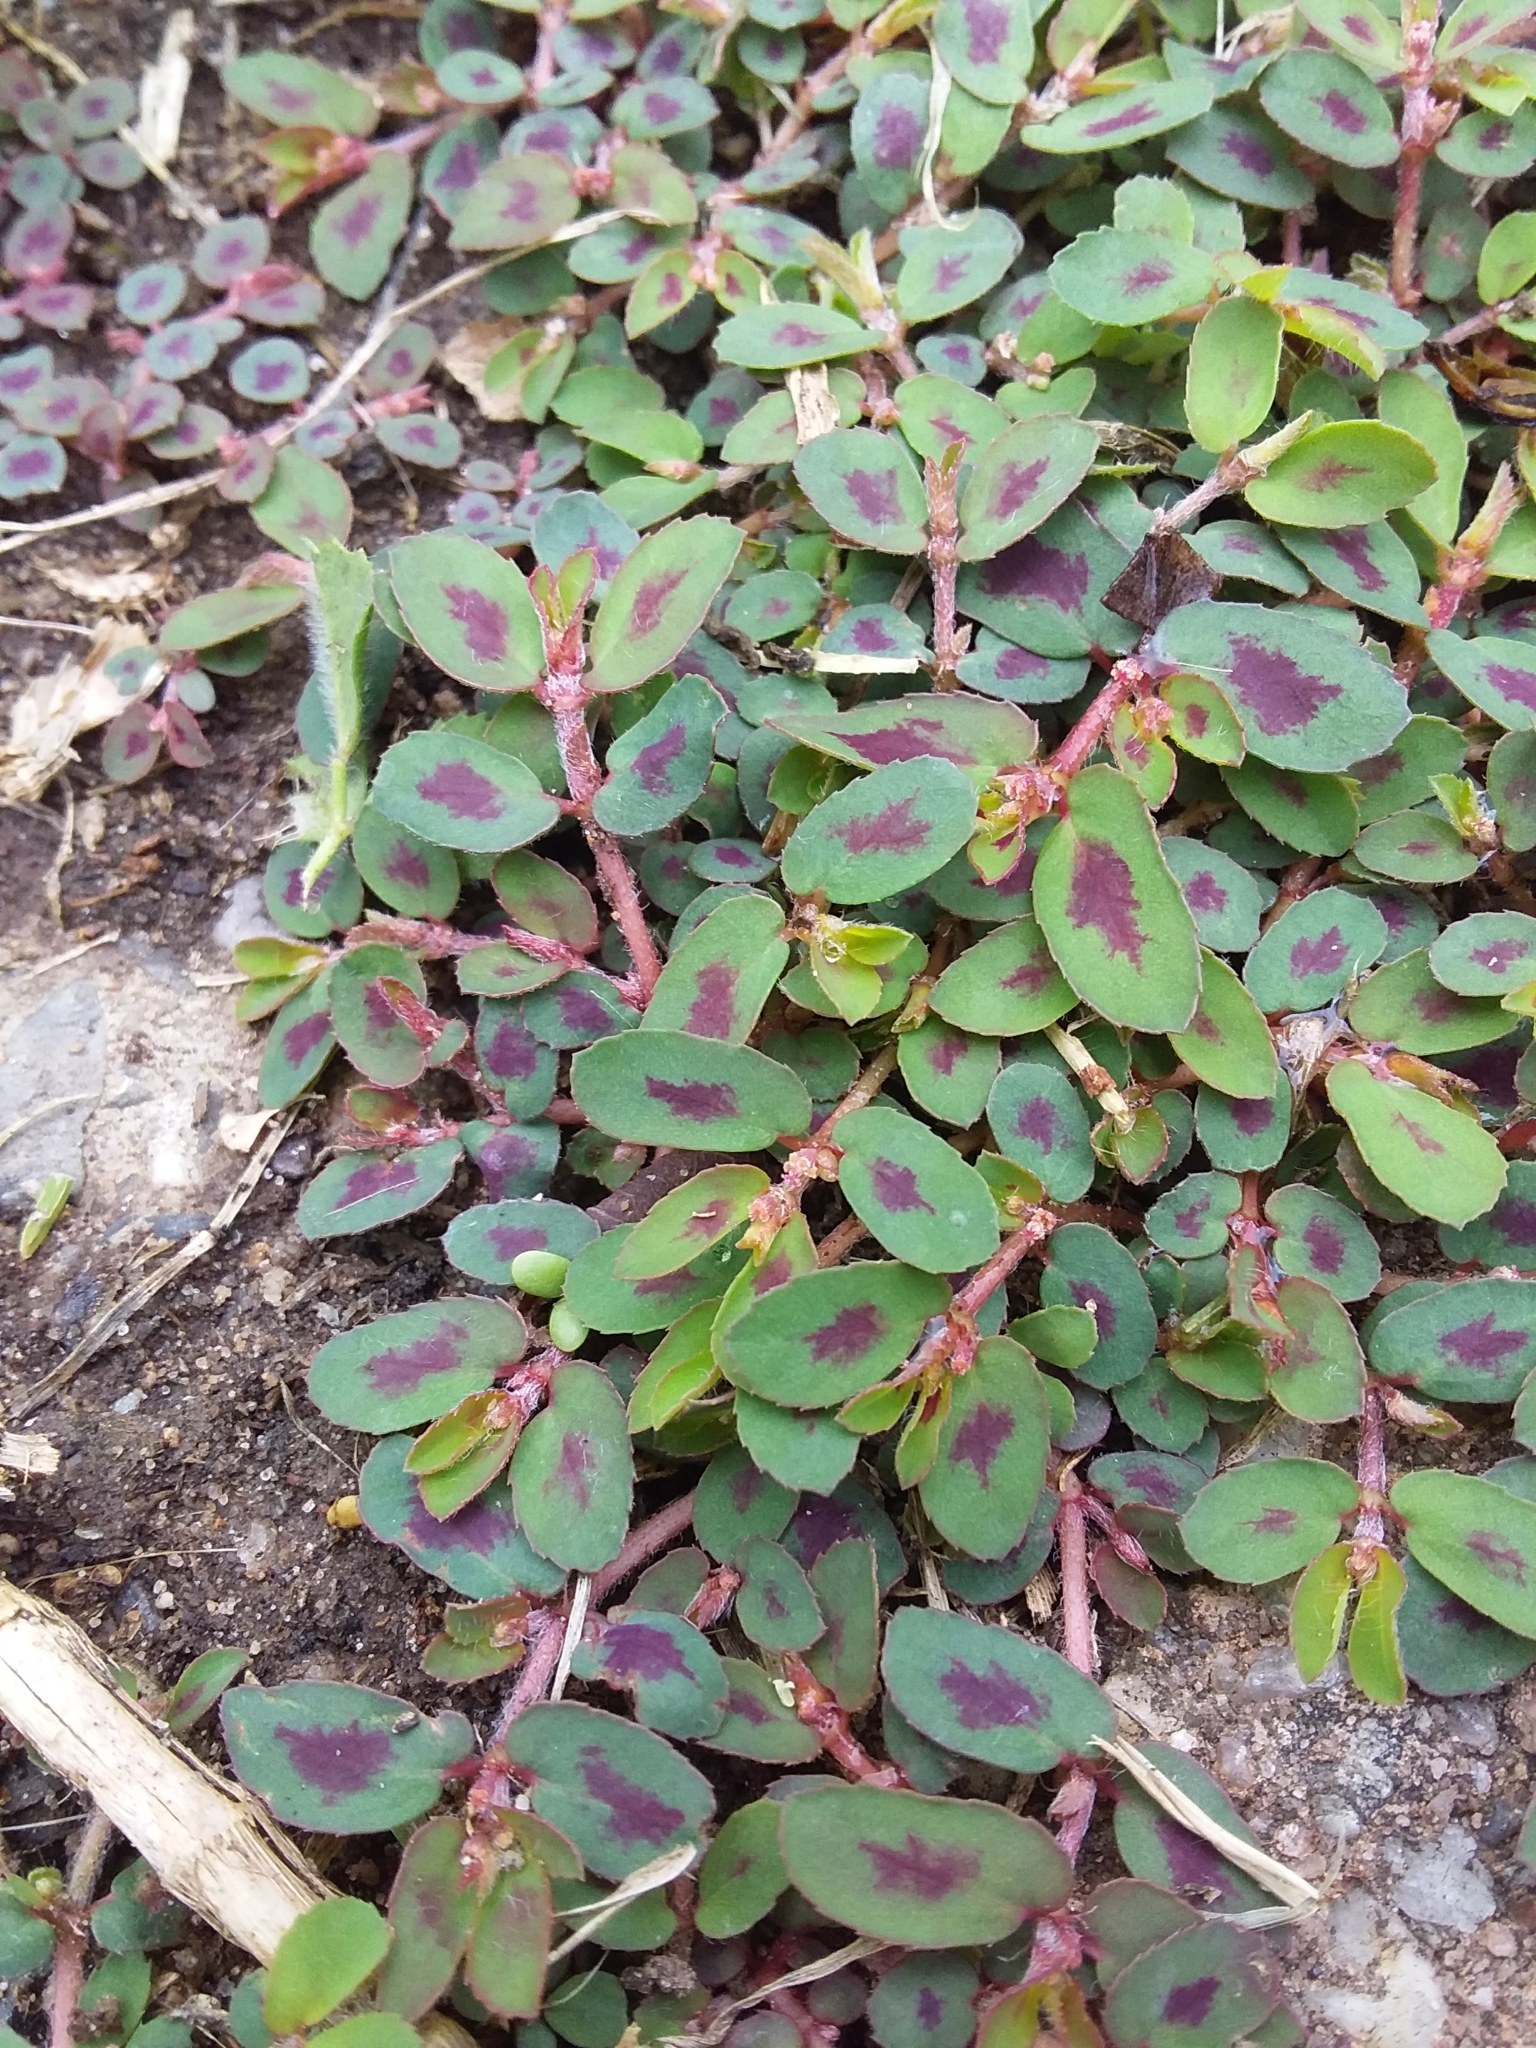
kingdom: Plantae
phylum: Tracheophyta
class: Magnoliopsida
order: Malpighiales
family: Euphorbiaceae
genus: Euphorbia
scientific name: Euphorbia maculata
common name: Spotted spurge
